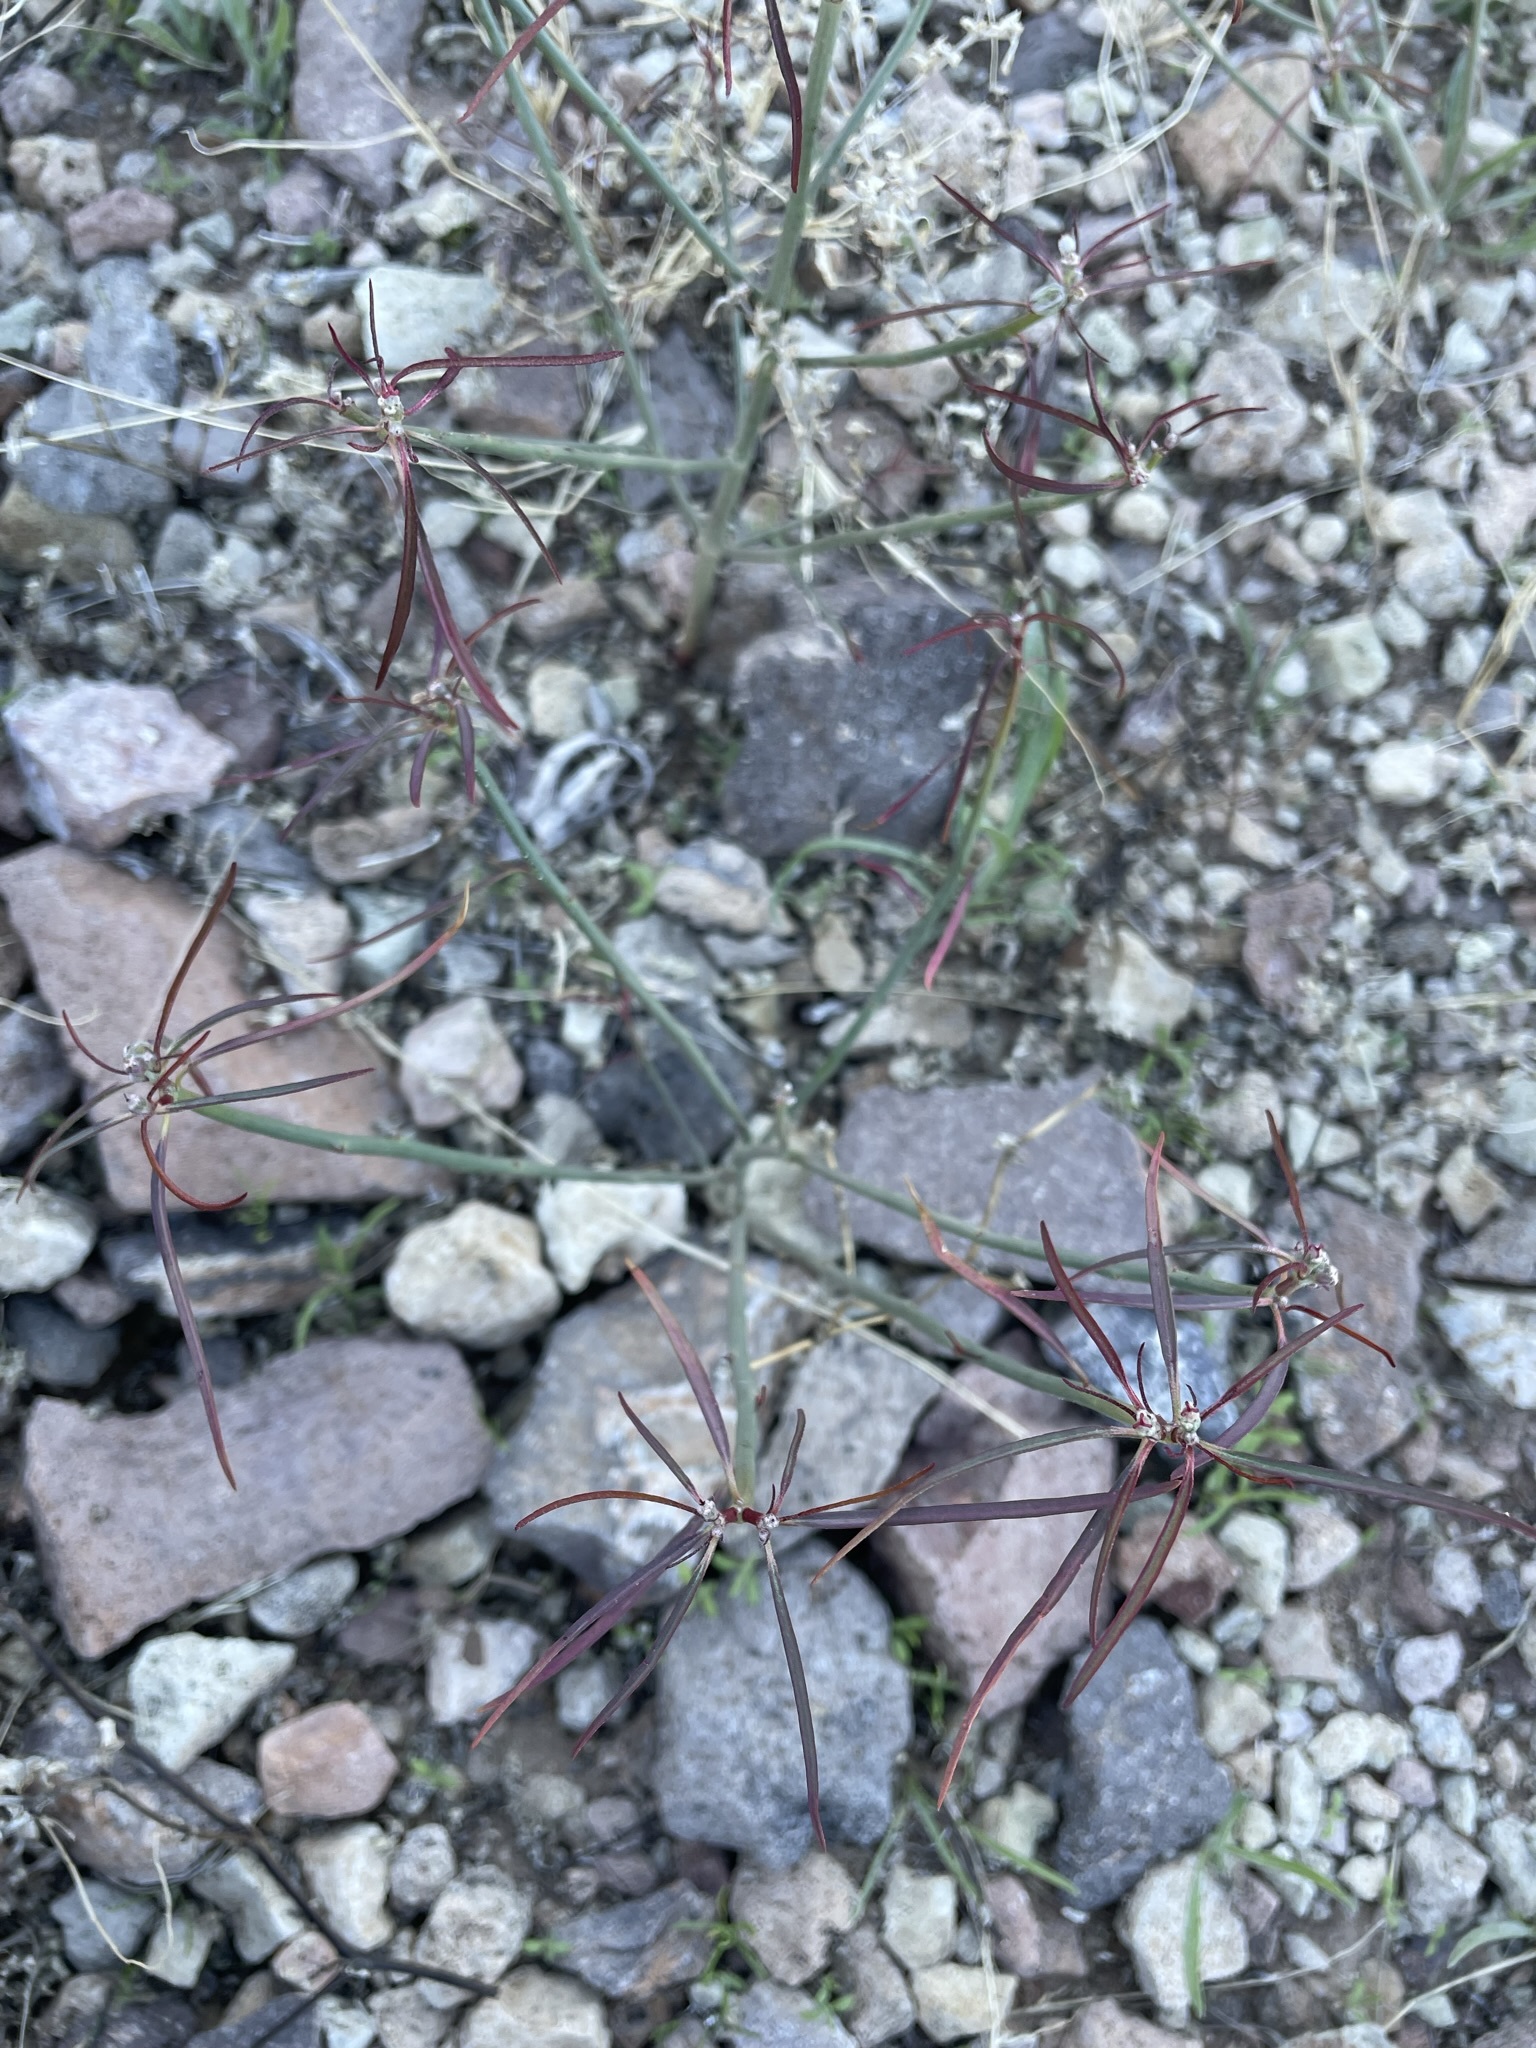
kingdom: Plantae
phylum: Tracheophyta
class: Magnoliopsida
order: Malpighiales
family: Euphorbiaceae
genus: Euphorbia
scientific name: Euphorbia eriantha
